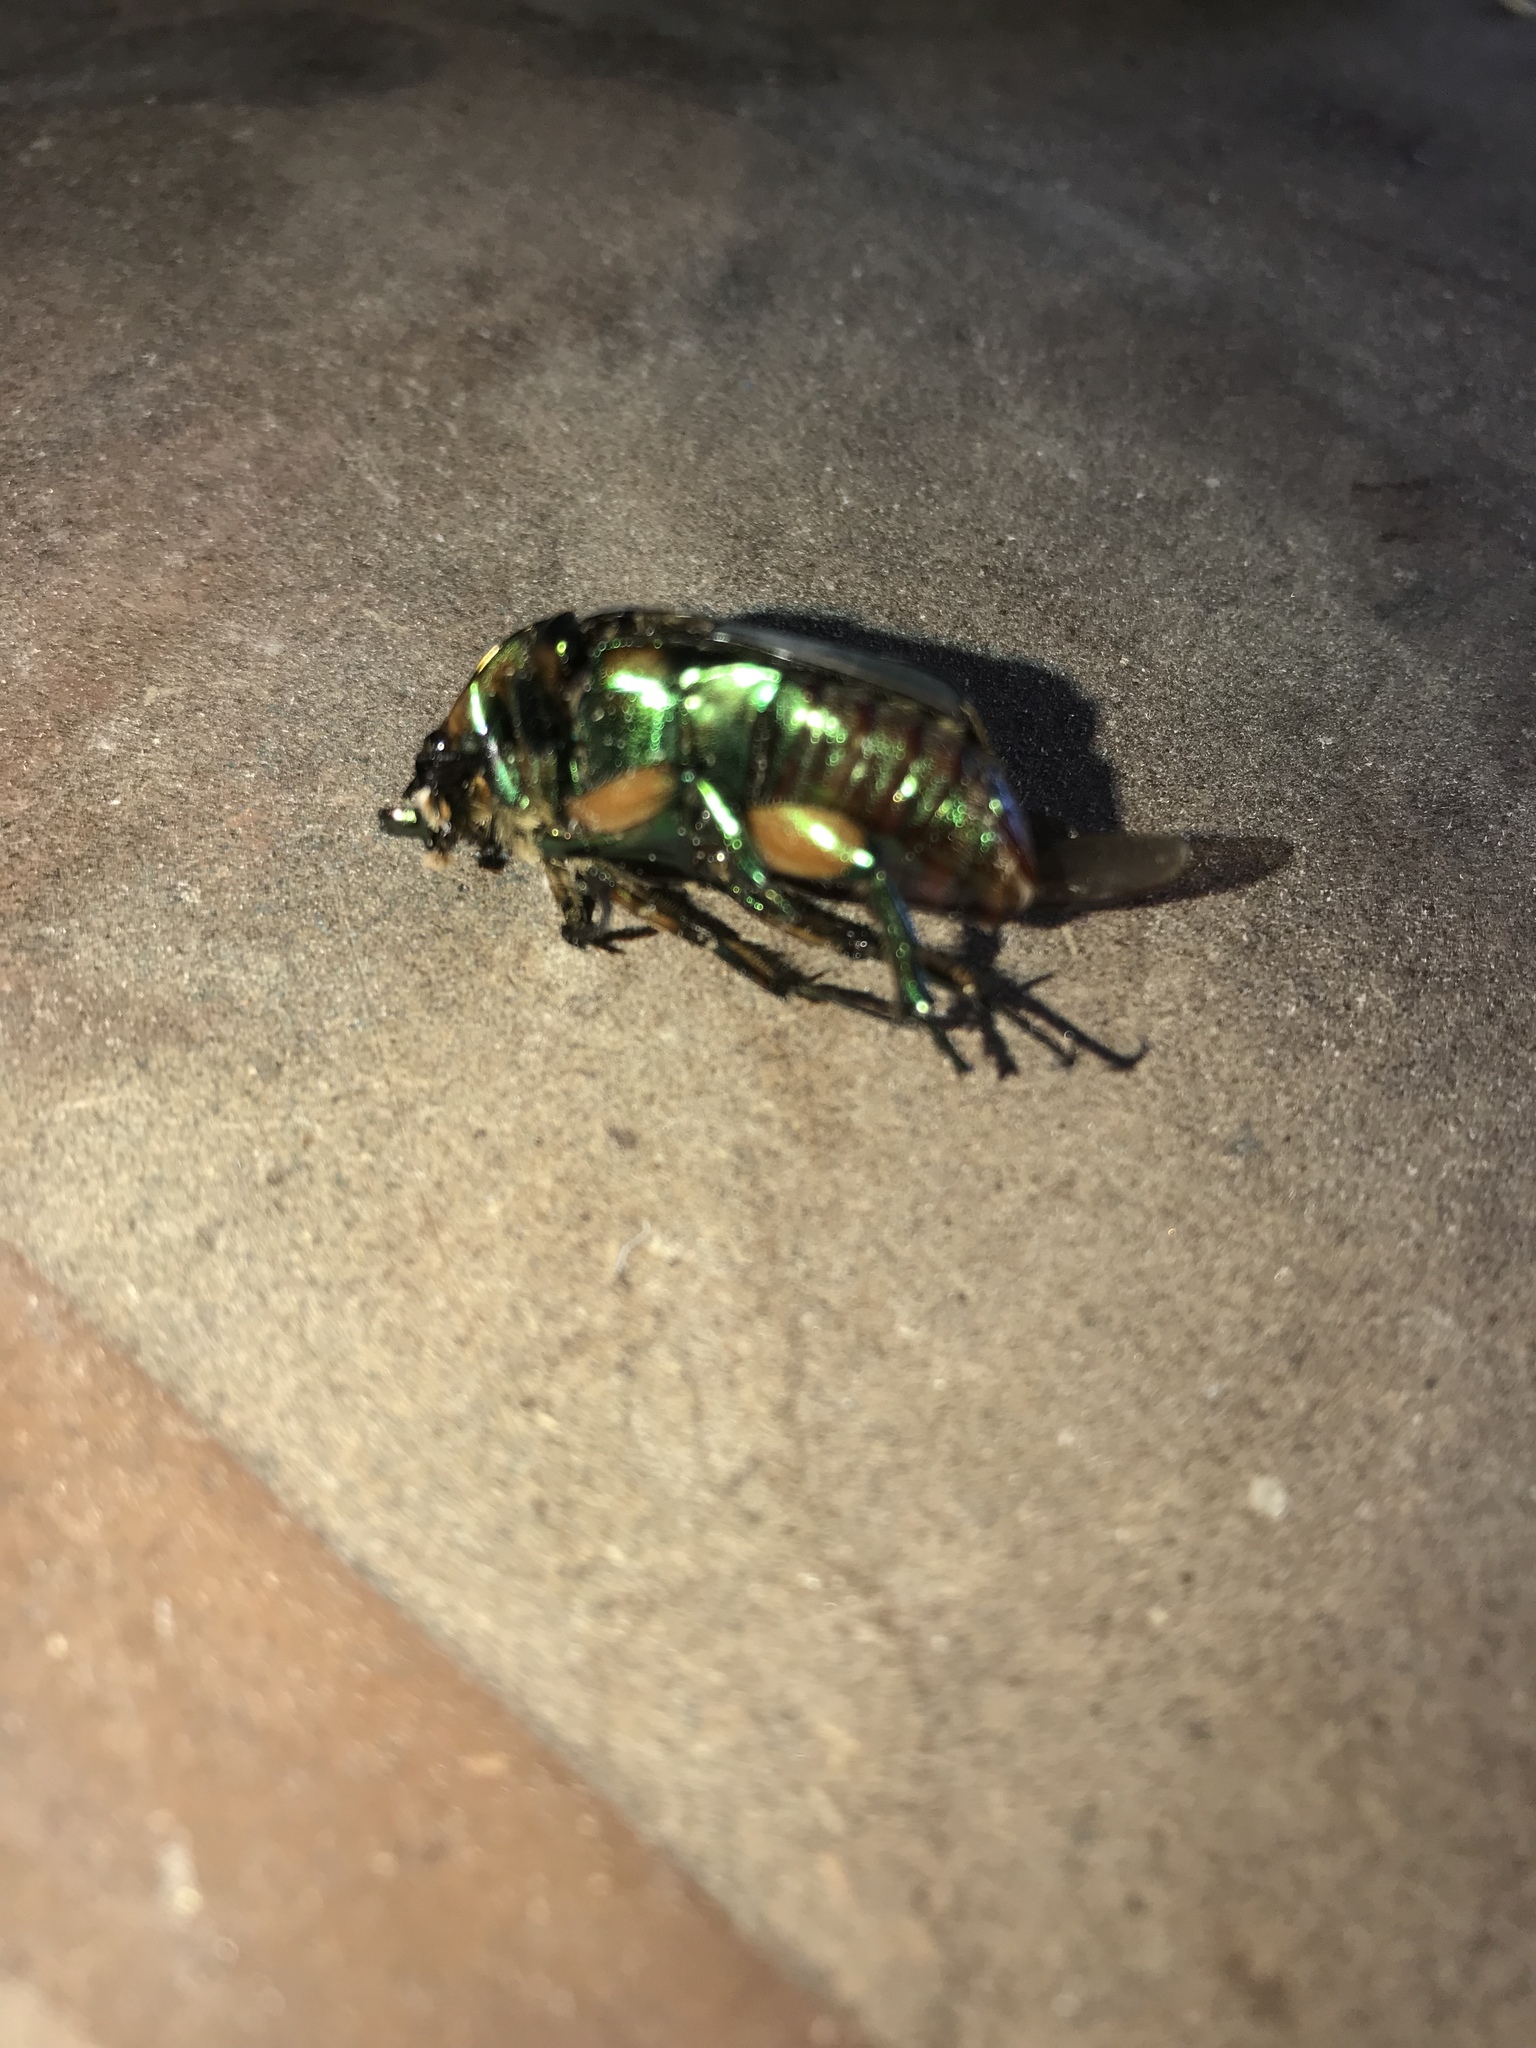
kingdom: Animalia
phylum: Arthropoda
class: Insecta
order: Coleoptera
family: Scarabaeidae
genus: Cotinis
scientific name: Cotinis nitida
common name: Common green june beetle
